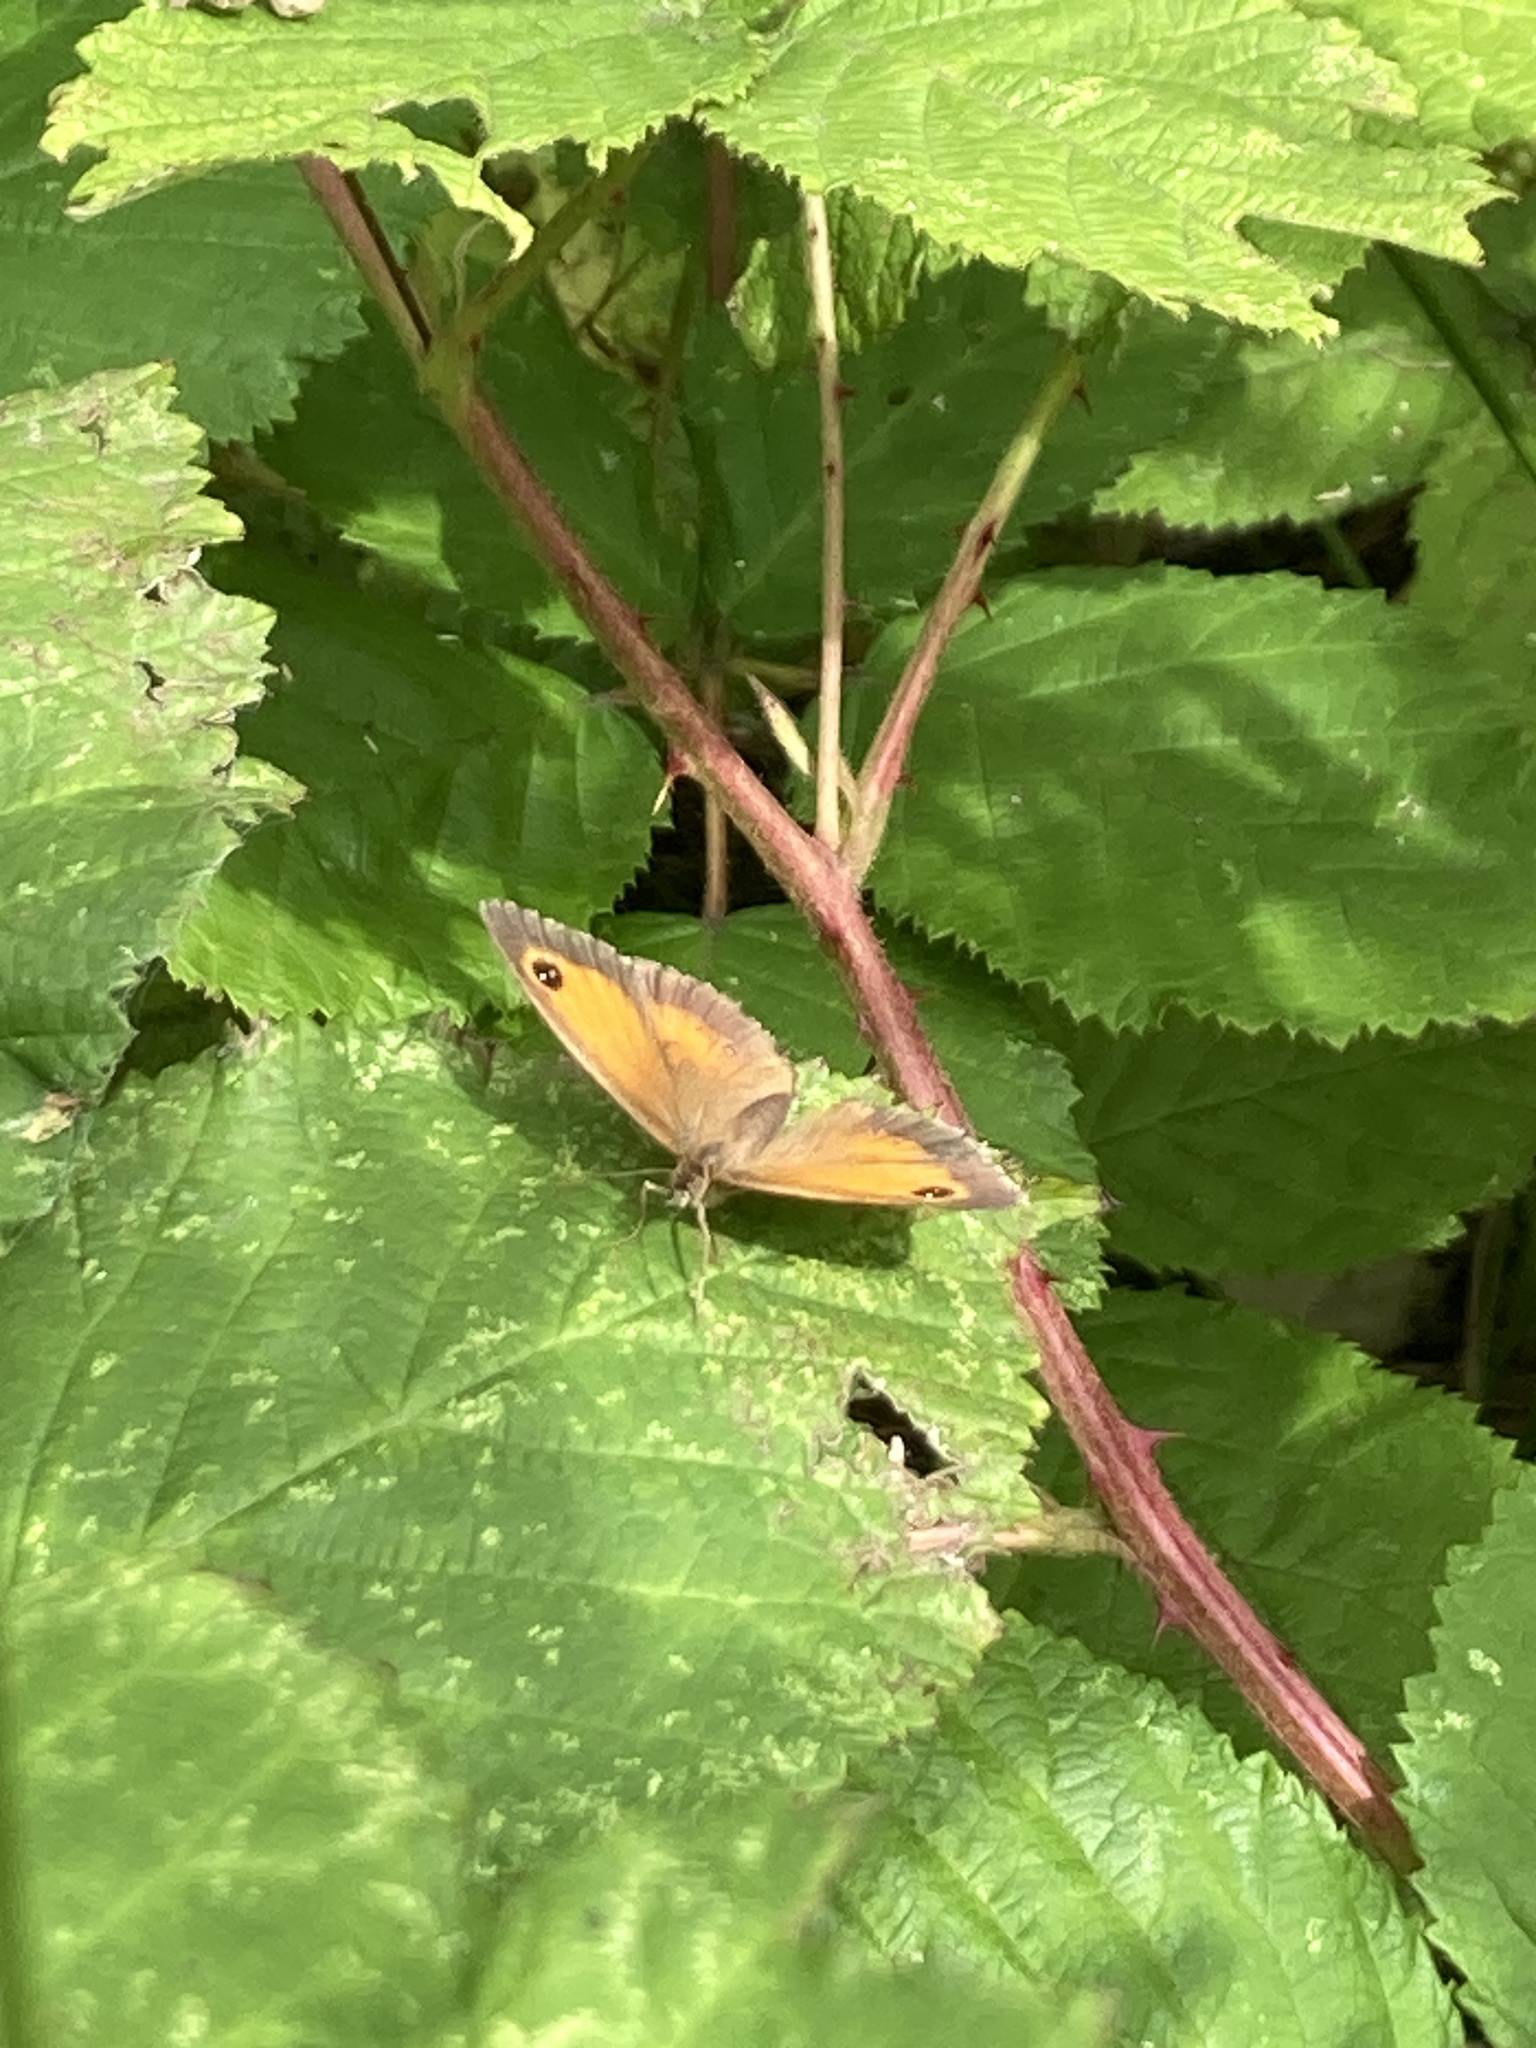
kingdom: Animalia
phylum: Arthropoda
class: Insecta
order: Lepidoptera
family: Nymphalidae
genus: Pyronia
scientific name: Pyronia tithonus
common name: Gatekeeper
